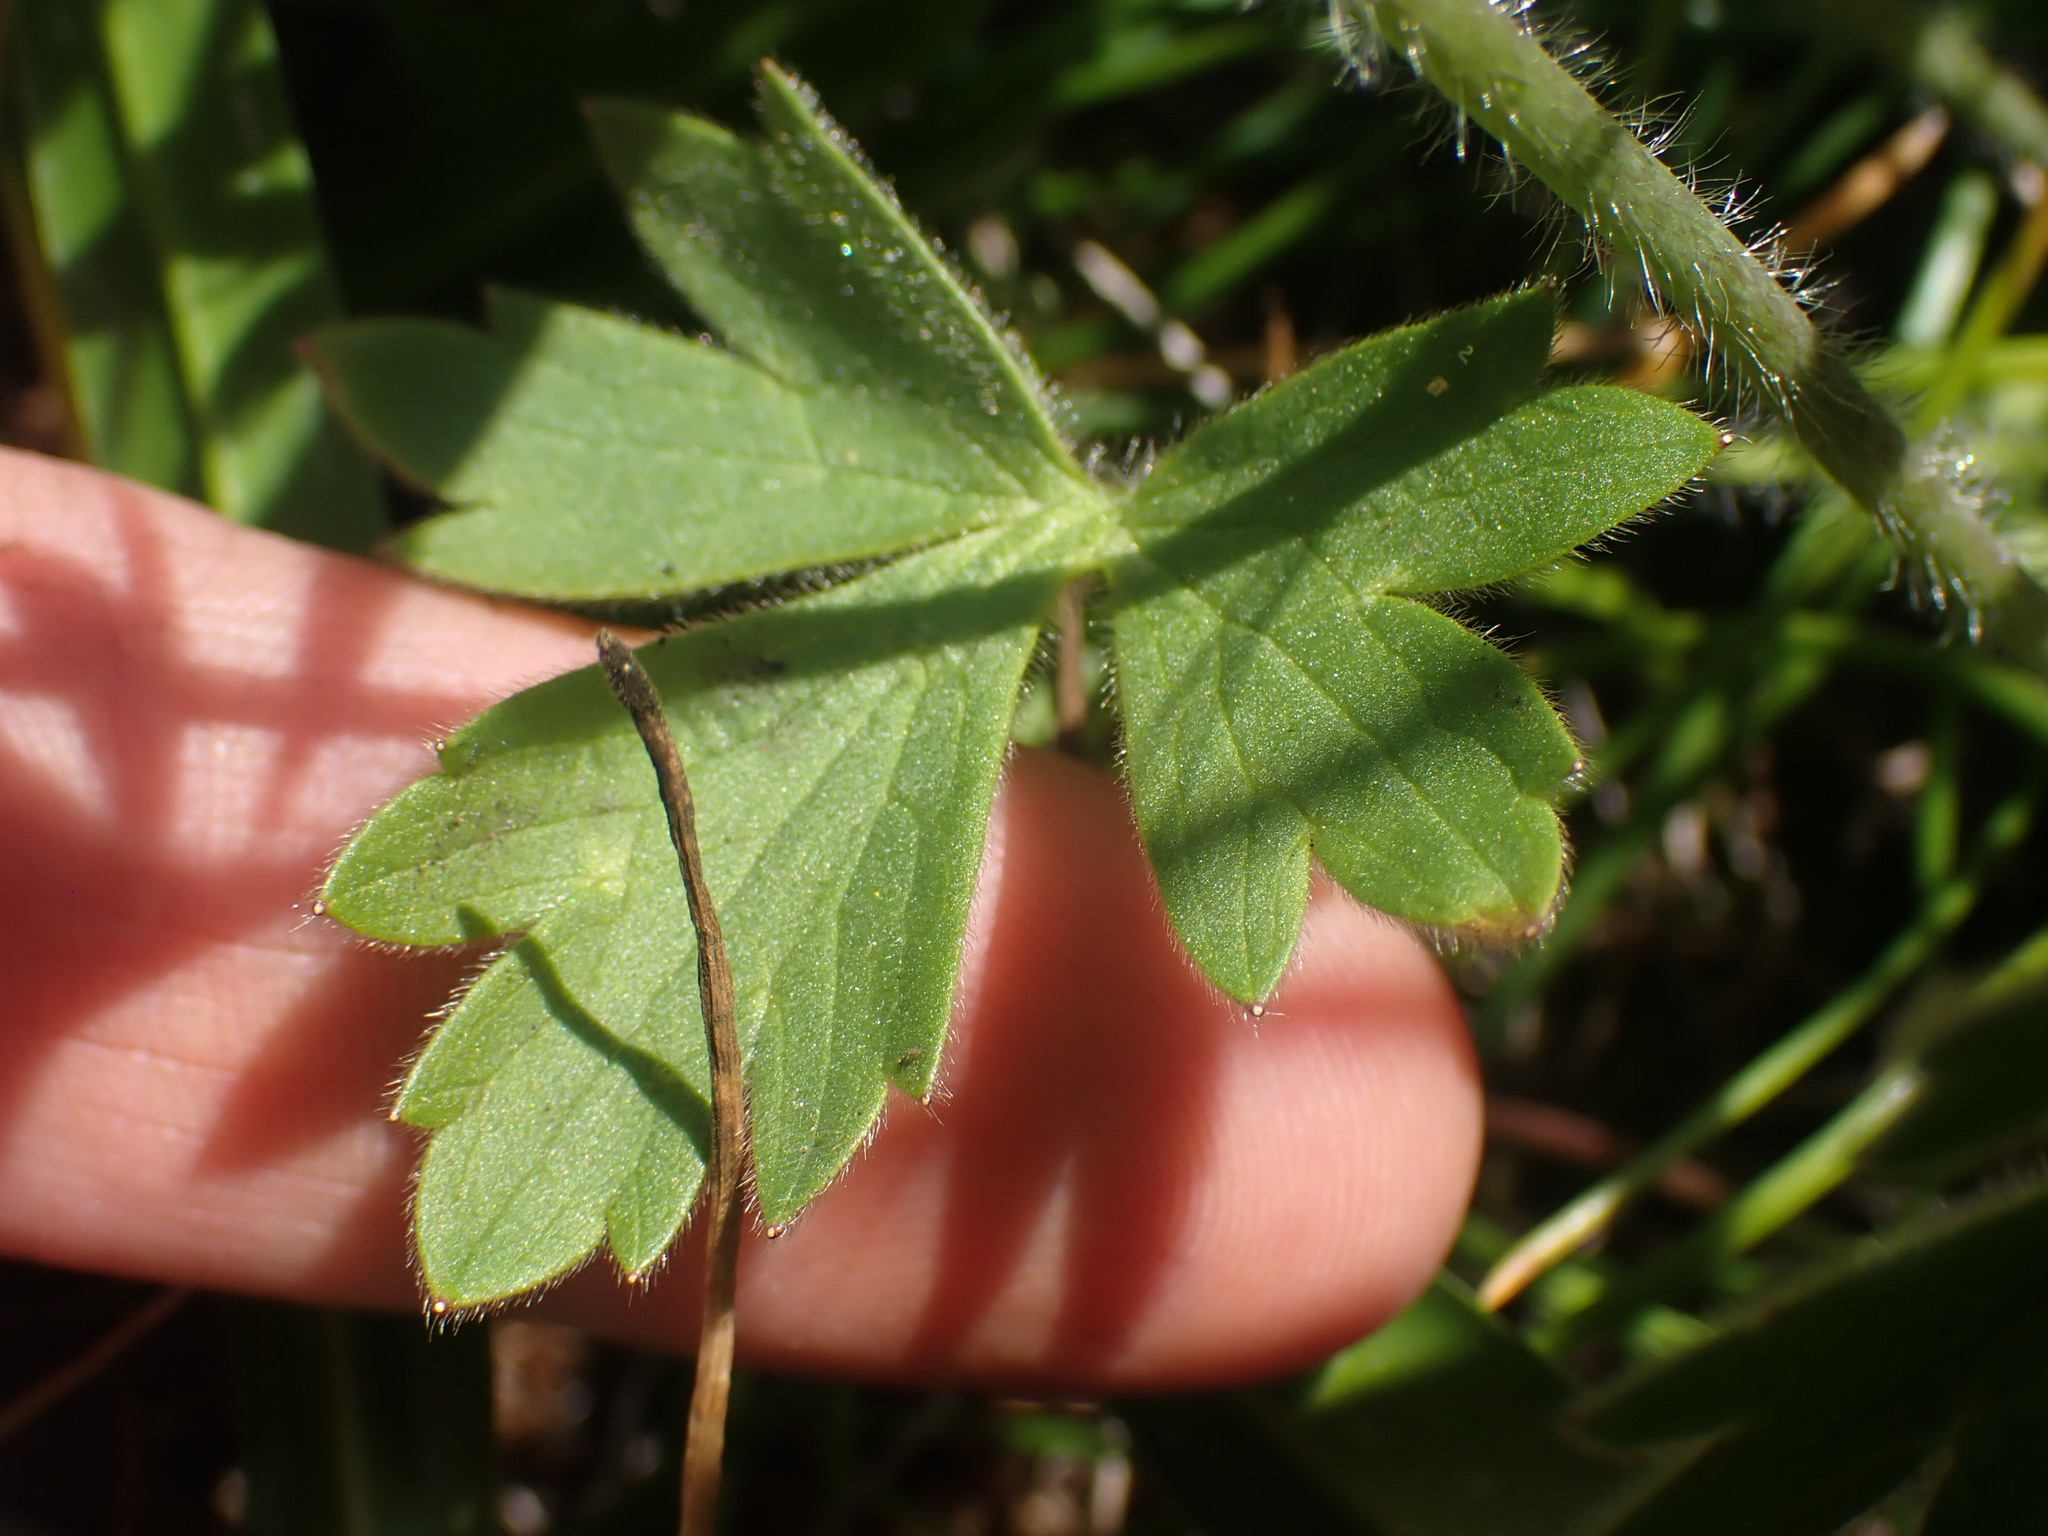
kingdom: Plantae
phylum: Tracheophyta
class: Magnoliopsida
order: Ranunculales
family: Ranunculaceae
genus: Ranunculus
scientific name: Ranunculus californicus
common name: California buttercup
